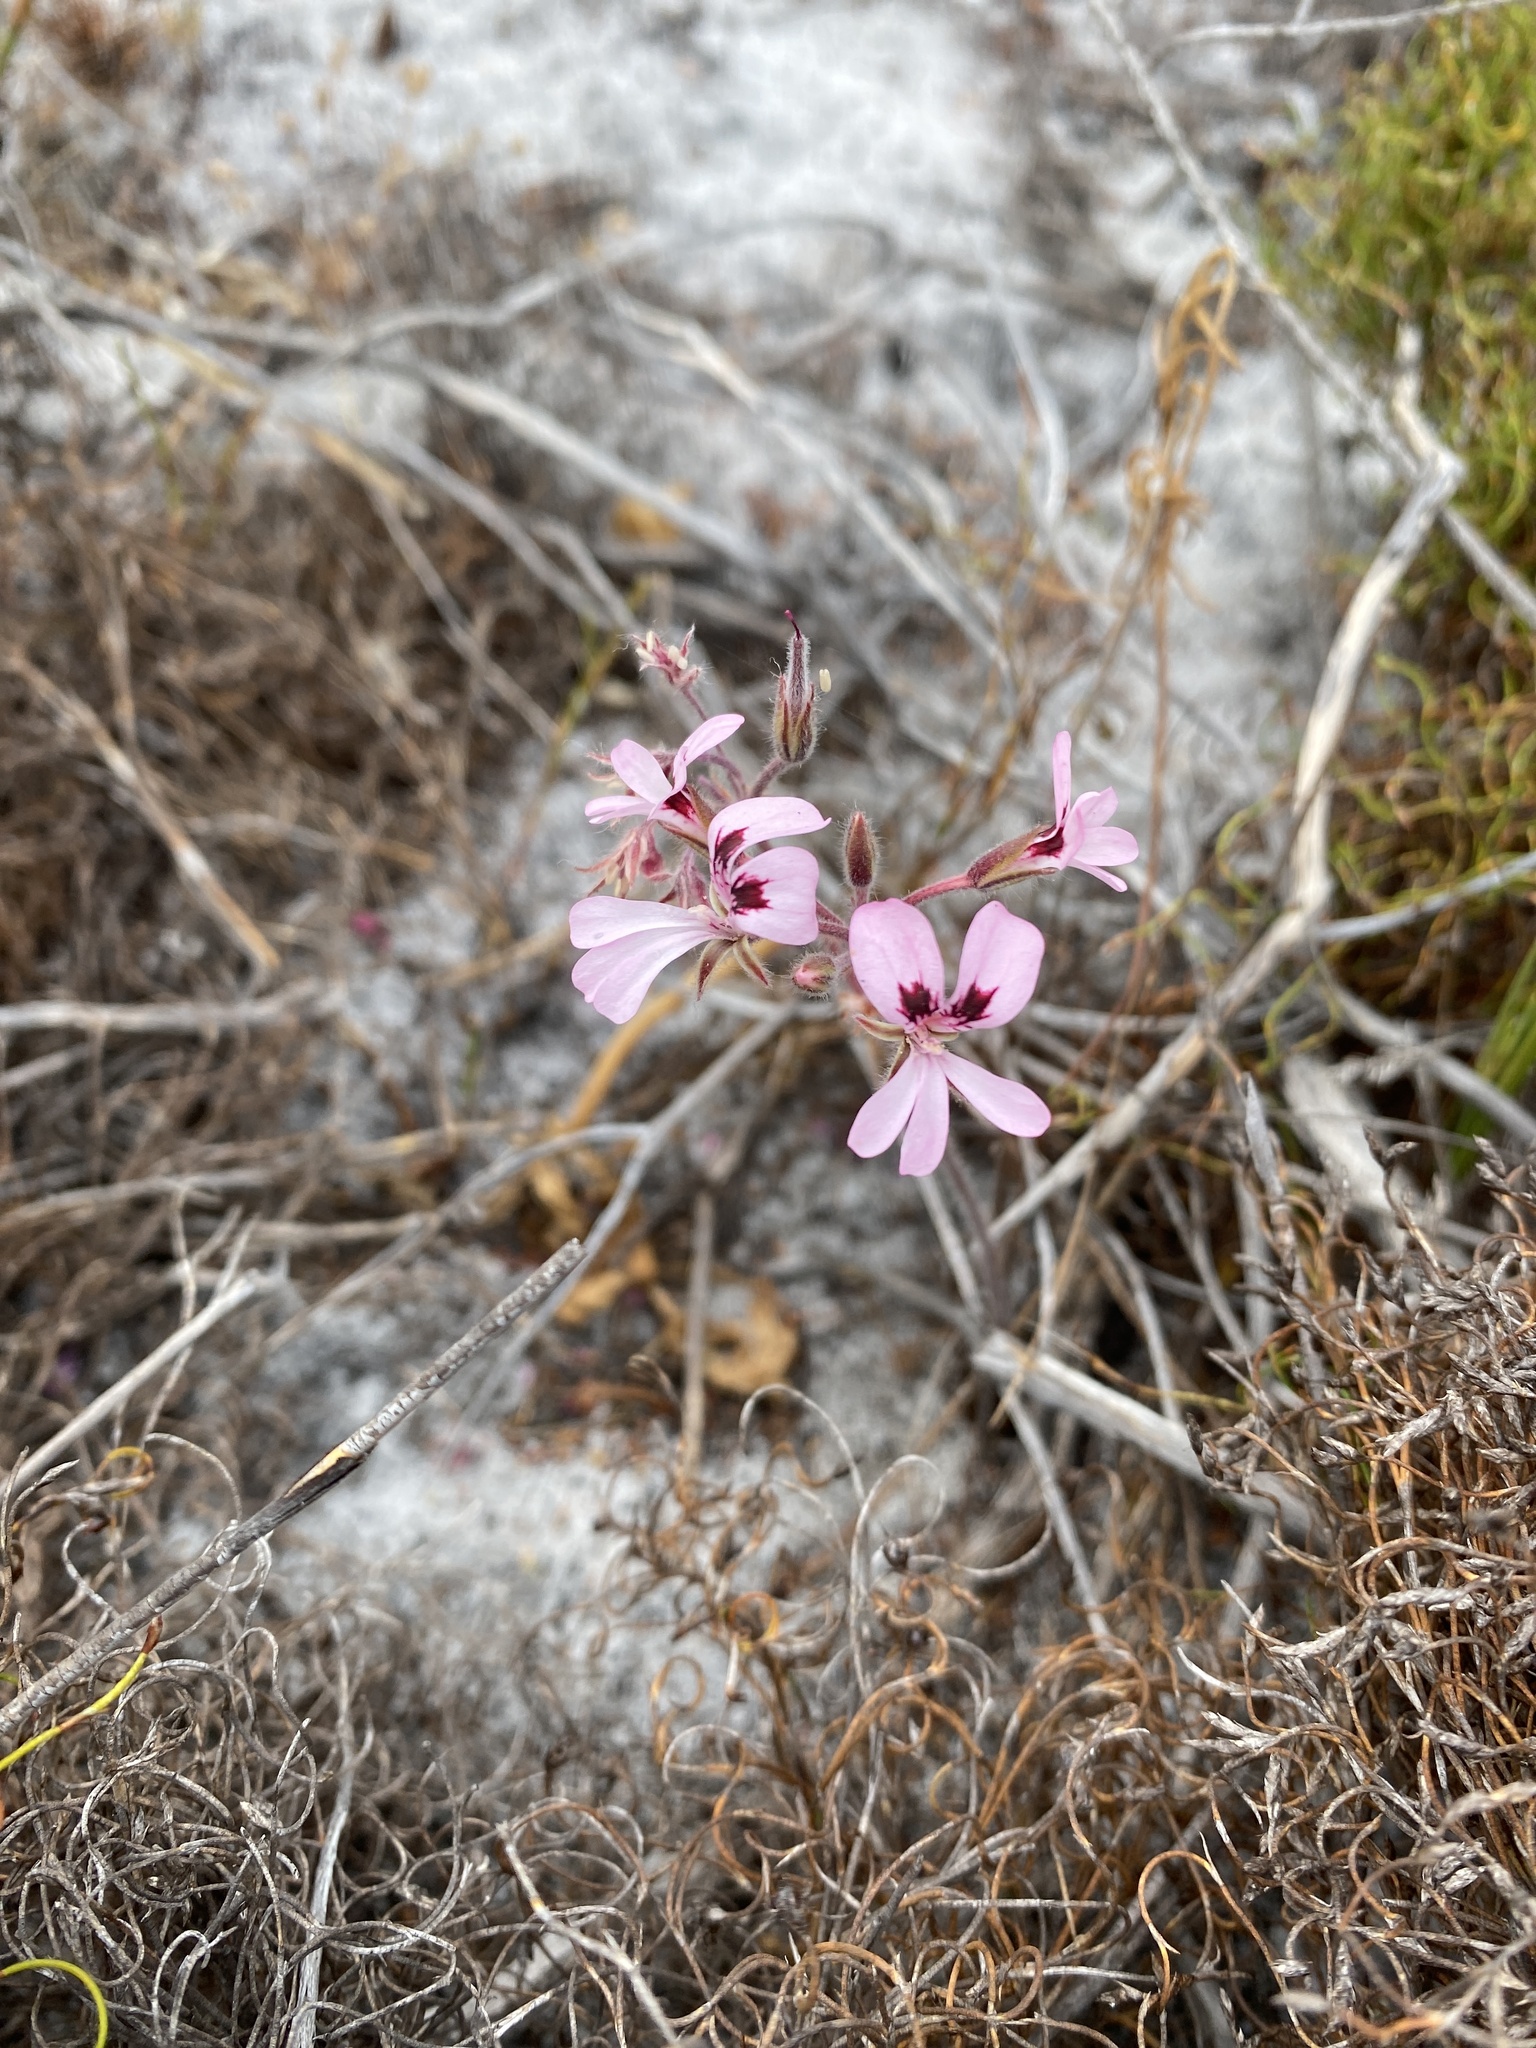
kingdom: Plantae
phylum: Tracheophyta
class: Magnoliopsida
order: Geraniales
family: Geraniaceae
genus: Pelargonium
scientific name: Pelargonium psammophilum
